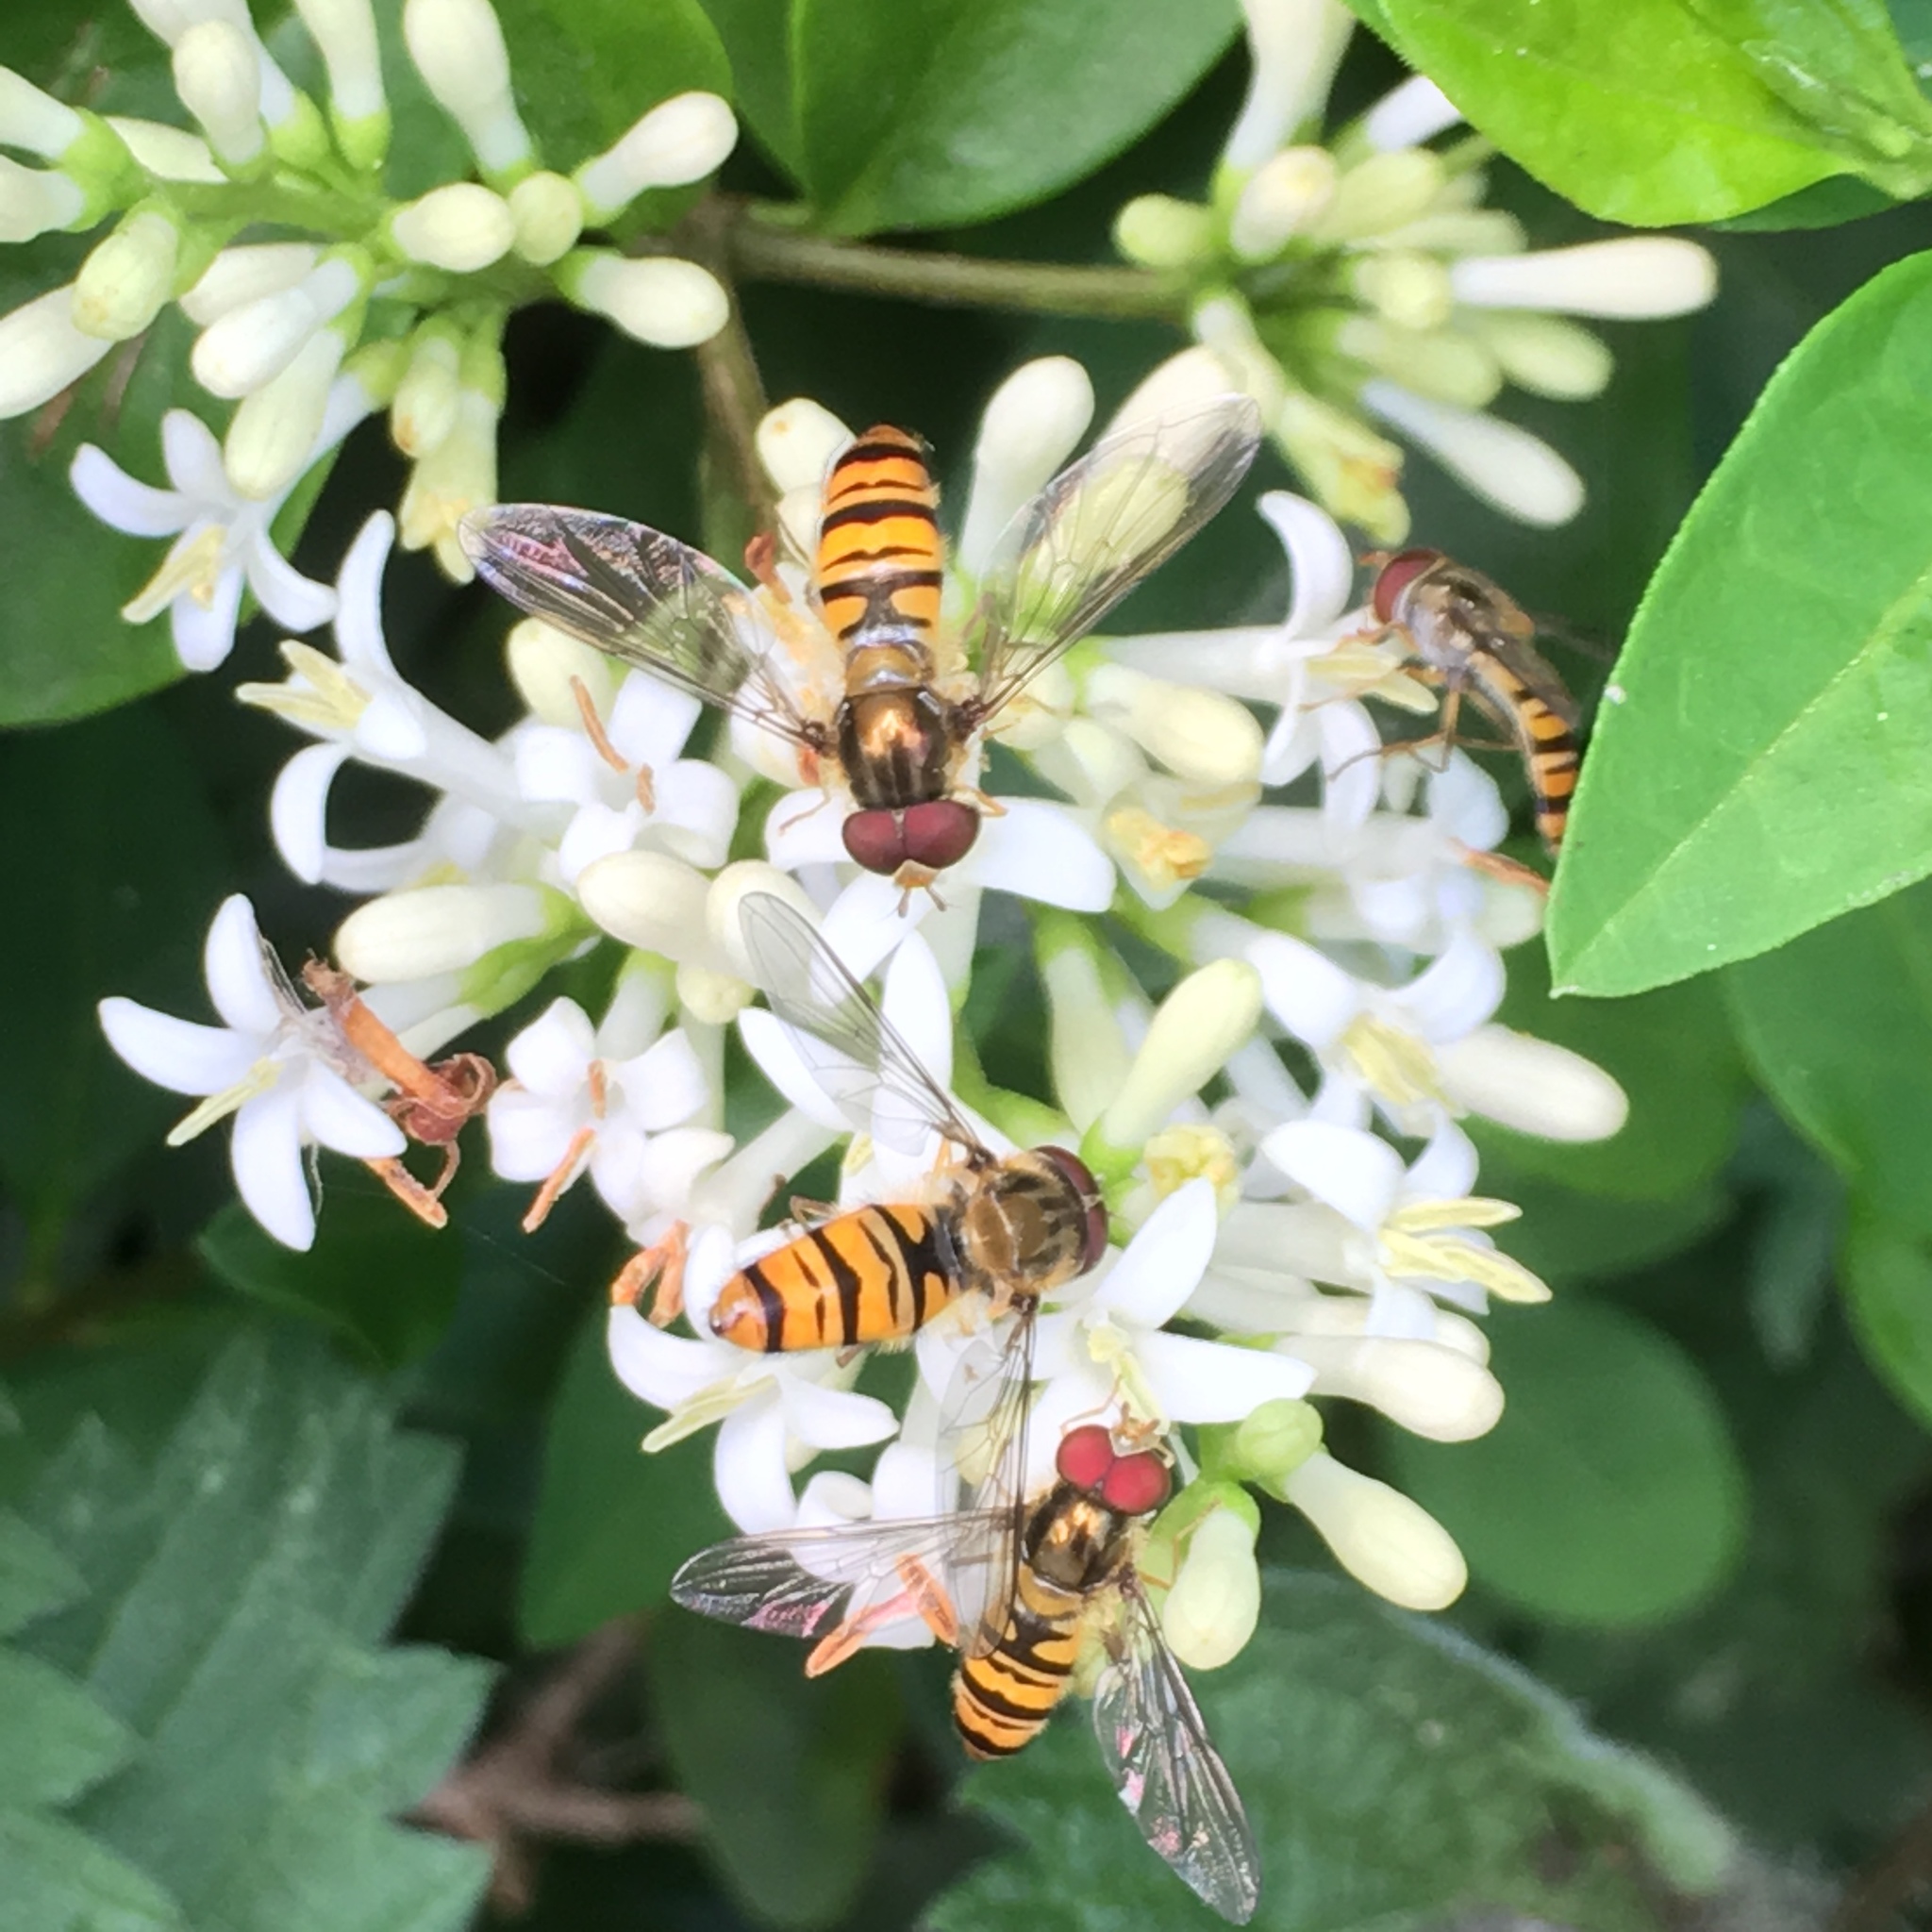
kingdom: Animalia
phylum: Arthropoda
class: Insecta
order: Diptera
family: Syrphidae
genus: Episyrphus
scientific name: Episyrphus balteatus
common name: Marmalade hoverfly
